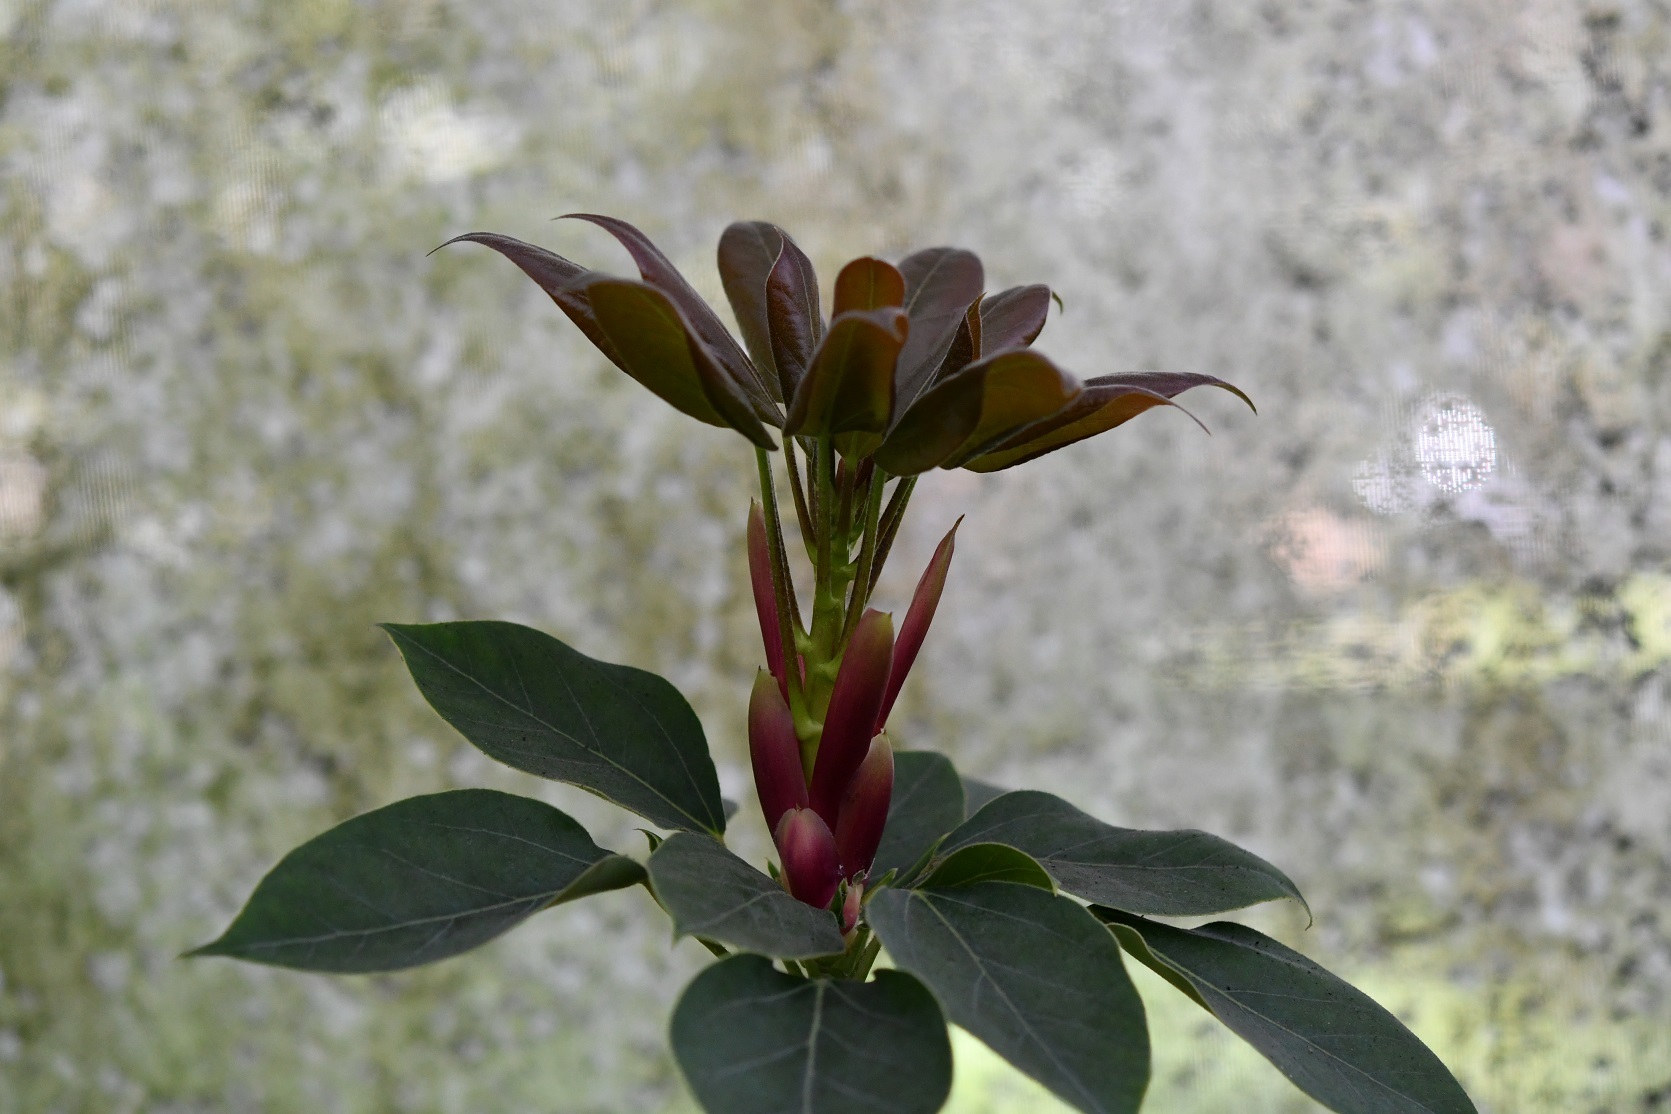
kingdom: Plantae
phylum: Tracheophyta
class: Magnoliopsida
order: Apiales
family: Araliaceae
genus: Oreopanax
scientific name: Oreopanax arcanus
